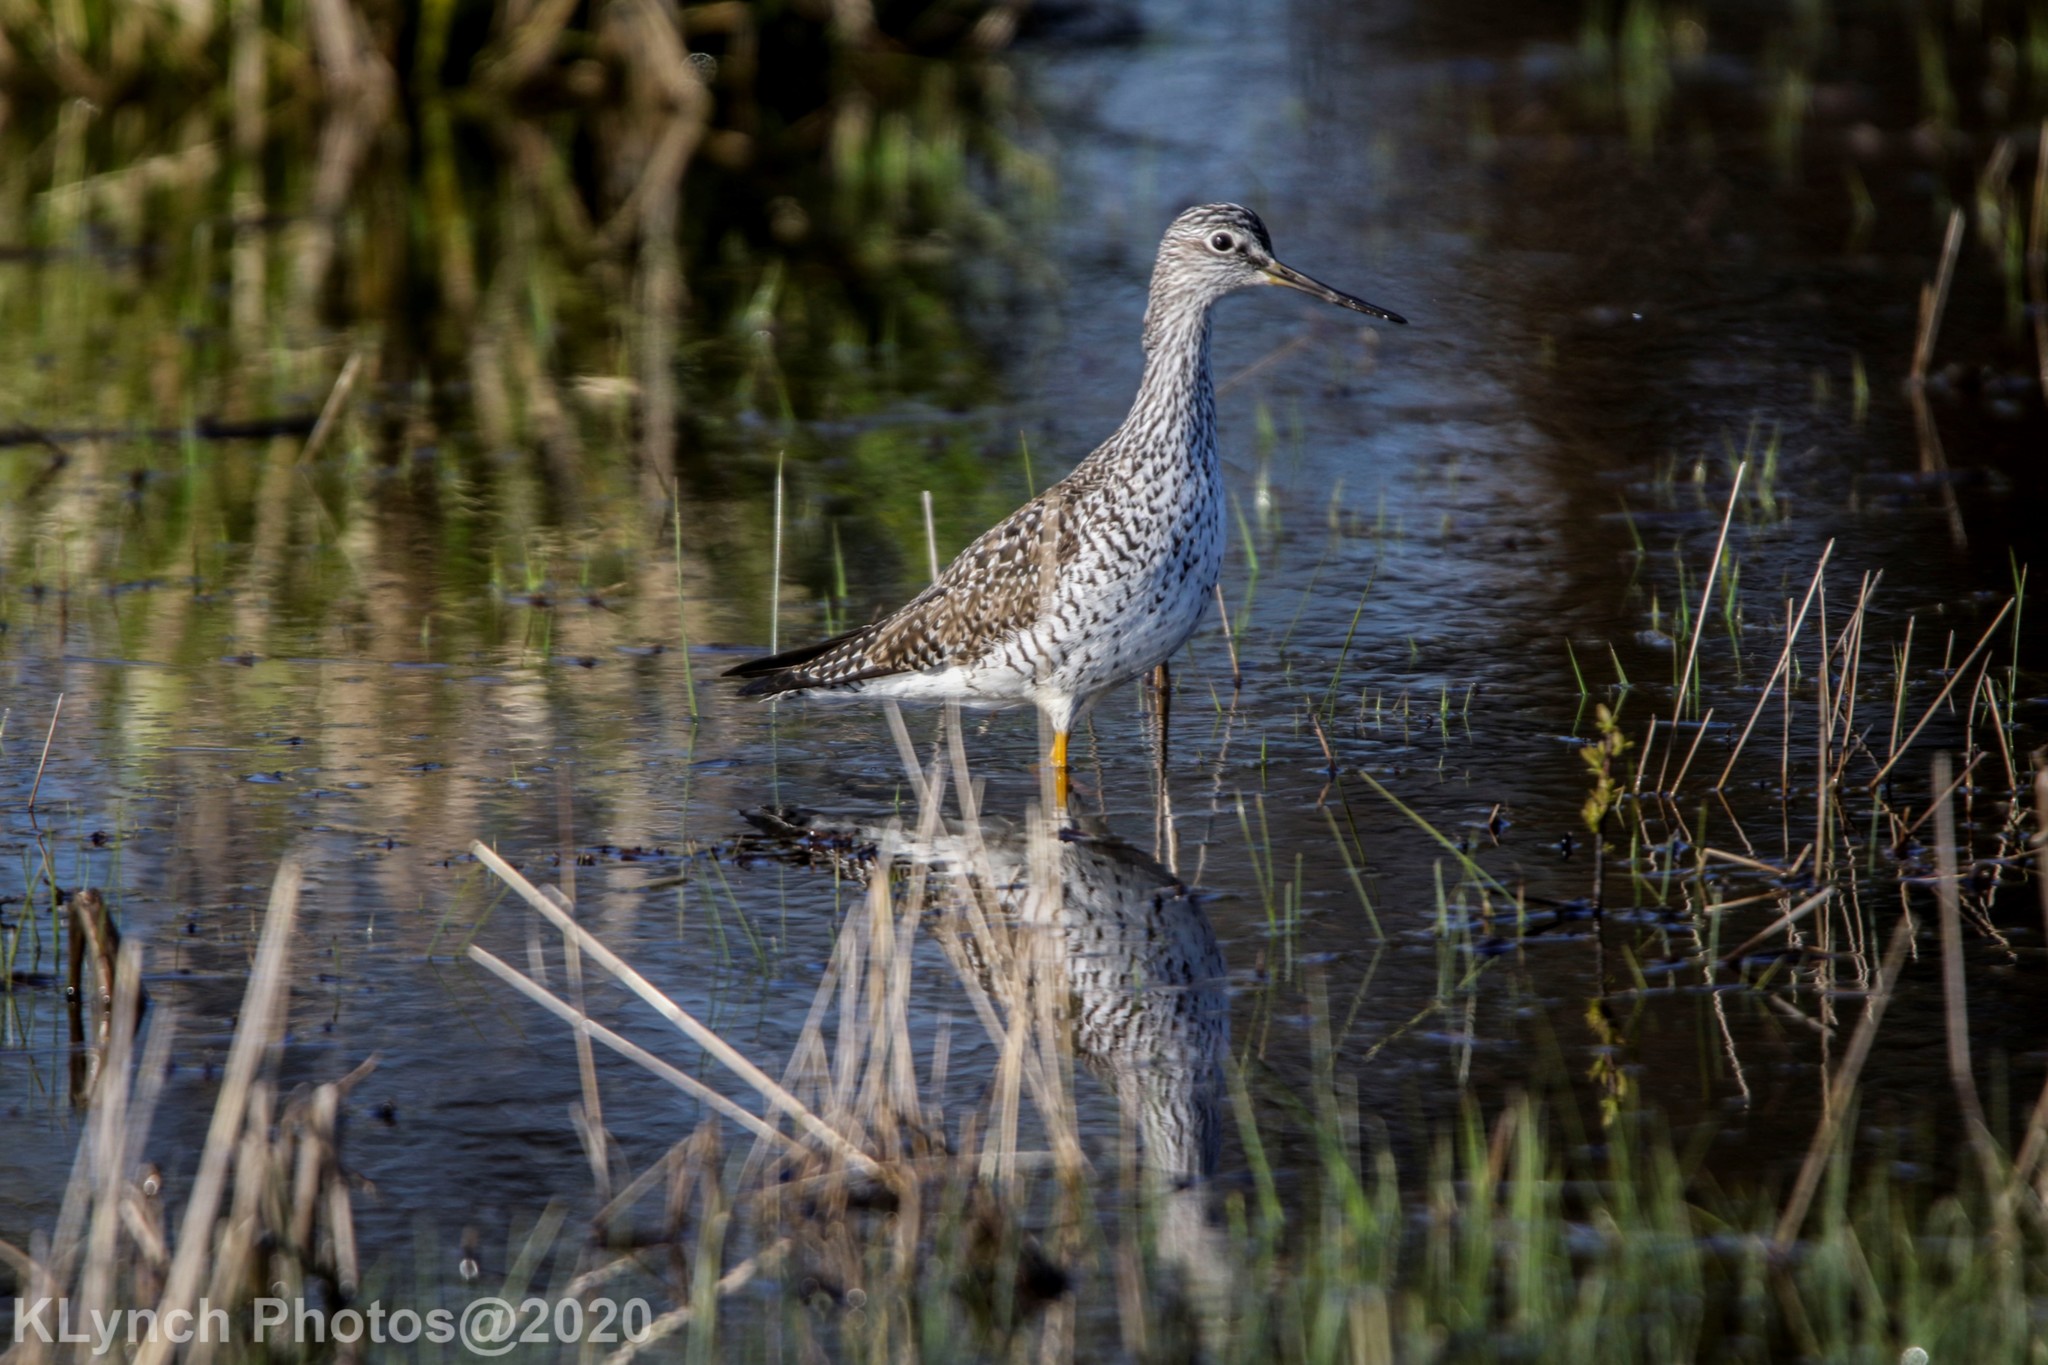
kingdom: Animalia
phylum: Chordata
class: Aves
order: Charadriiformes
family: Scolopacidae
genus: Tringa
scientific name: Tringa melanoleuca
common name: Greater yellowlegs
